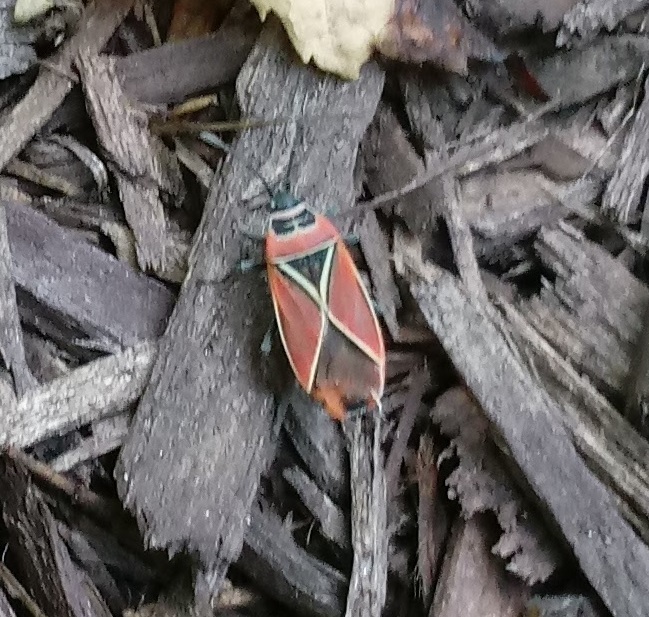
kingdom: Animalia
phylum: Arthropoda
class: Insecta
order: Hemiptera
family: Lygaeidae
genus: Neacoryphus
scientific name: Neacoryphus bicrucis
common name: Lygaeid bug
